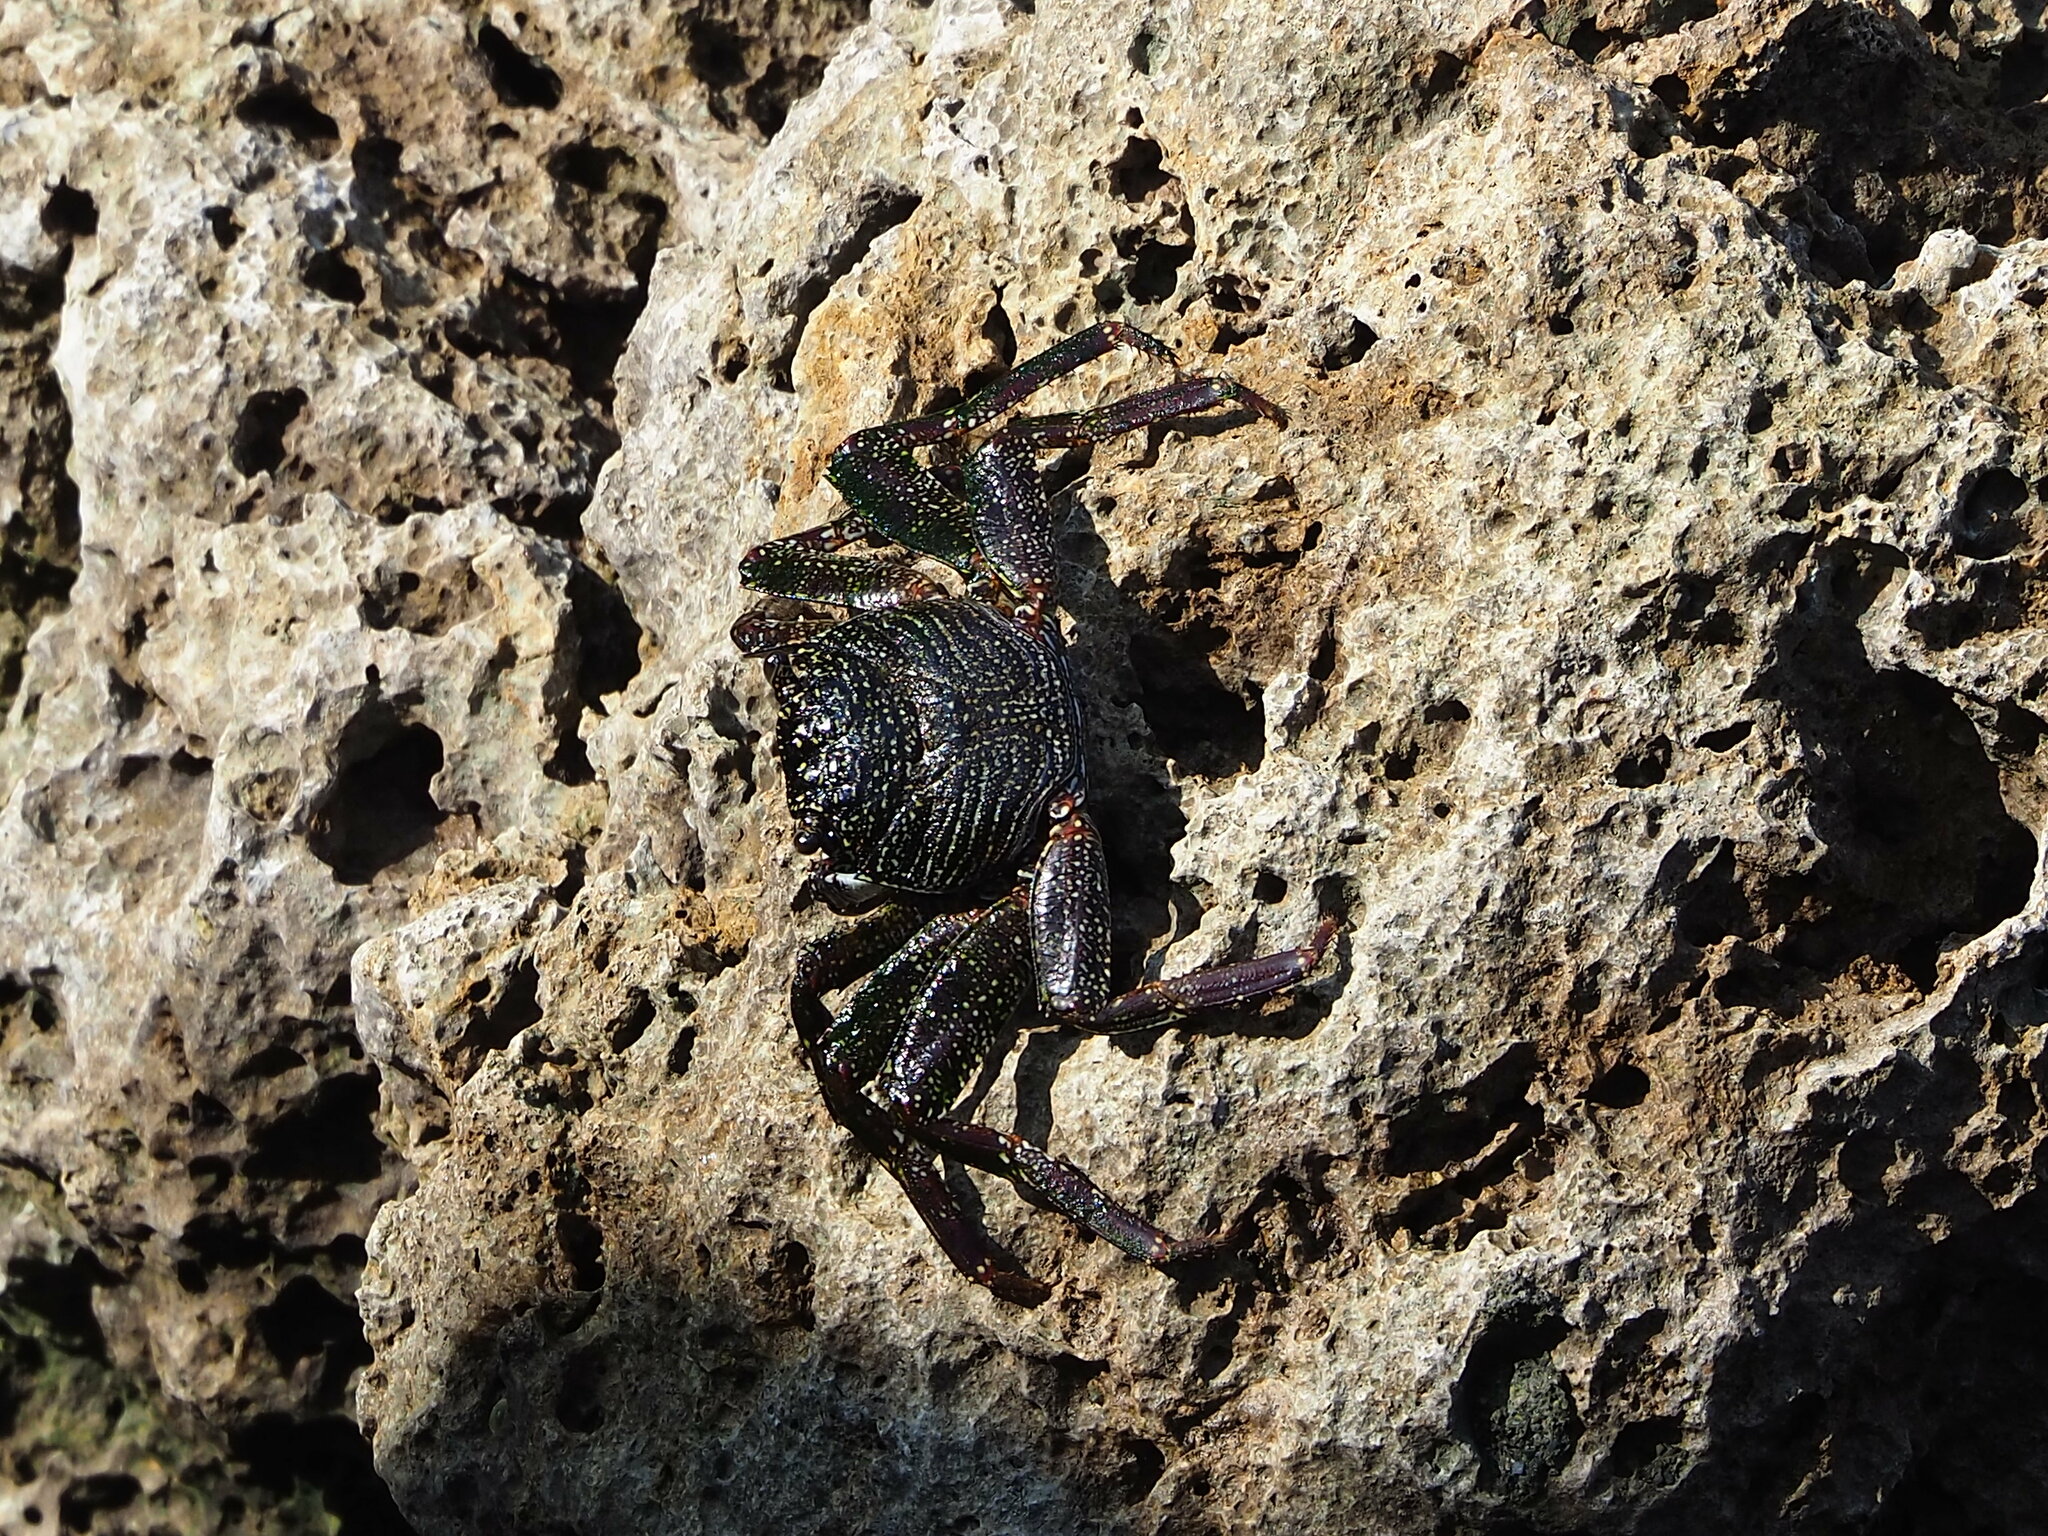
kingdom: Animalia
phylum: Arthropoda
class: Malacostraca
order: Decapoda
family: Grapsidae
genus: Grapsus
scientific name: Grapsus tenuicrustatus
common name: Natal lightfoot crab
